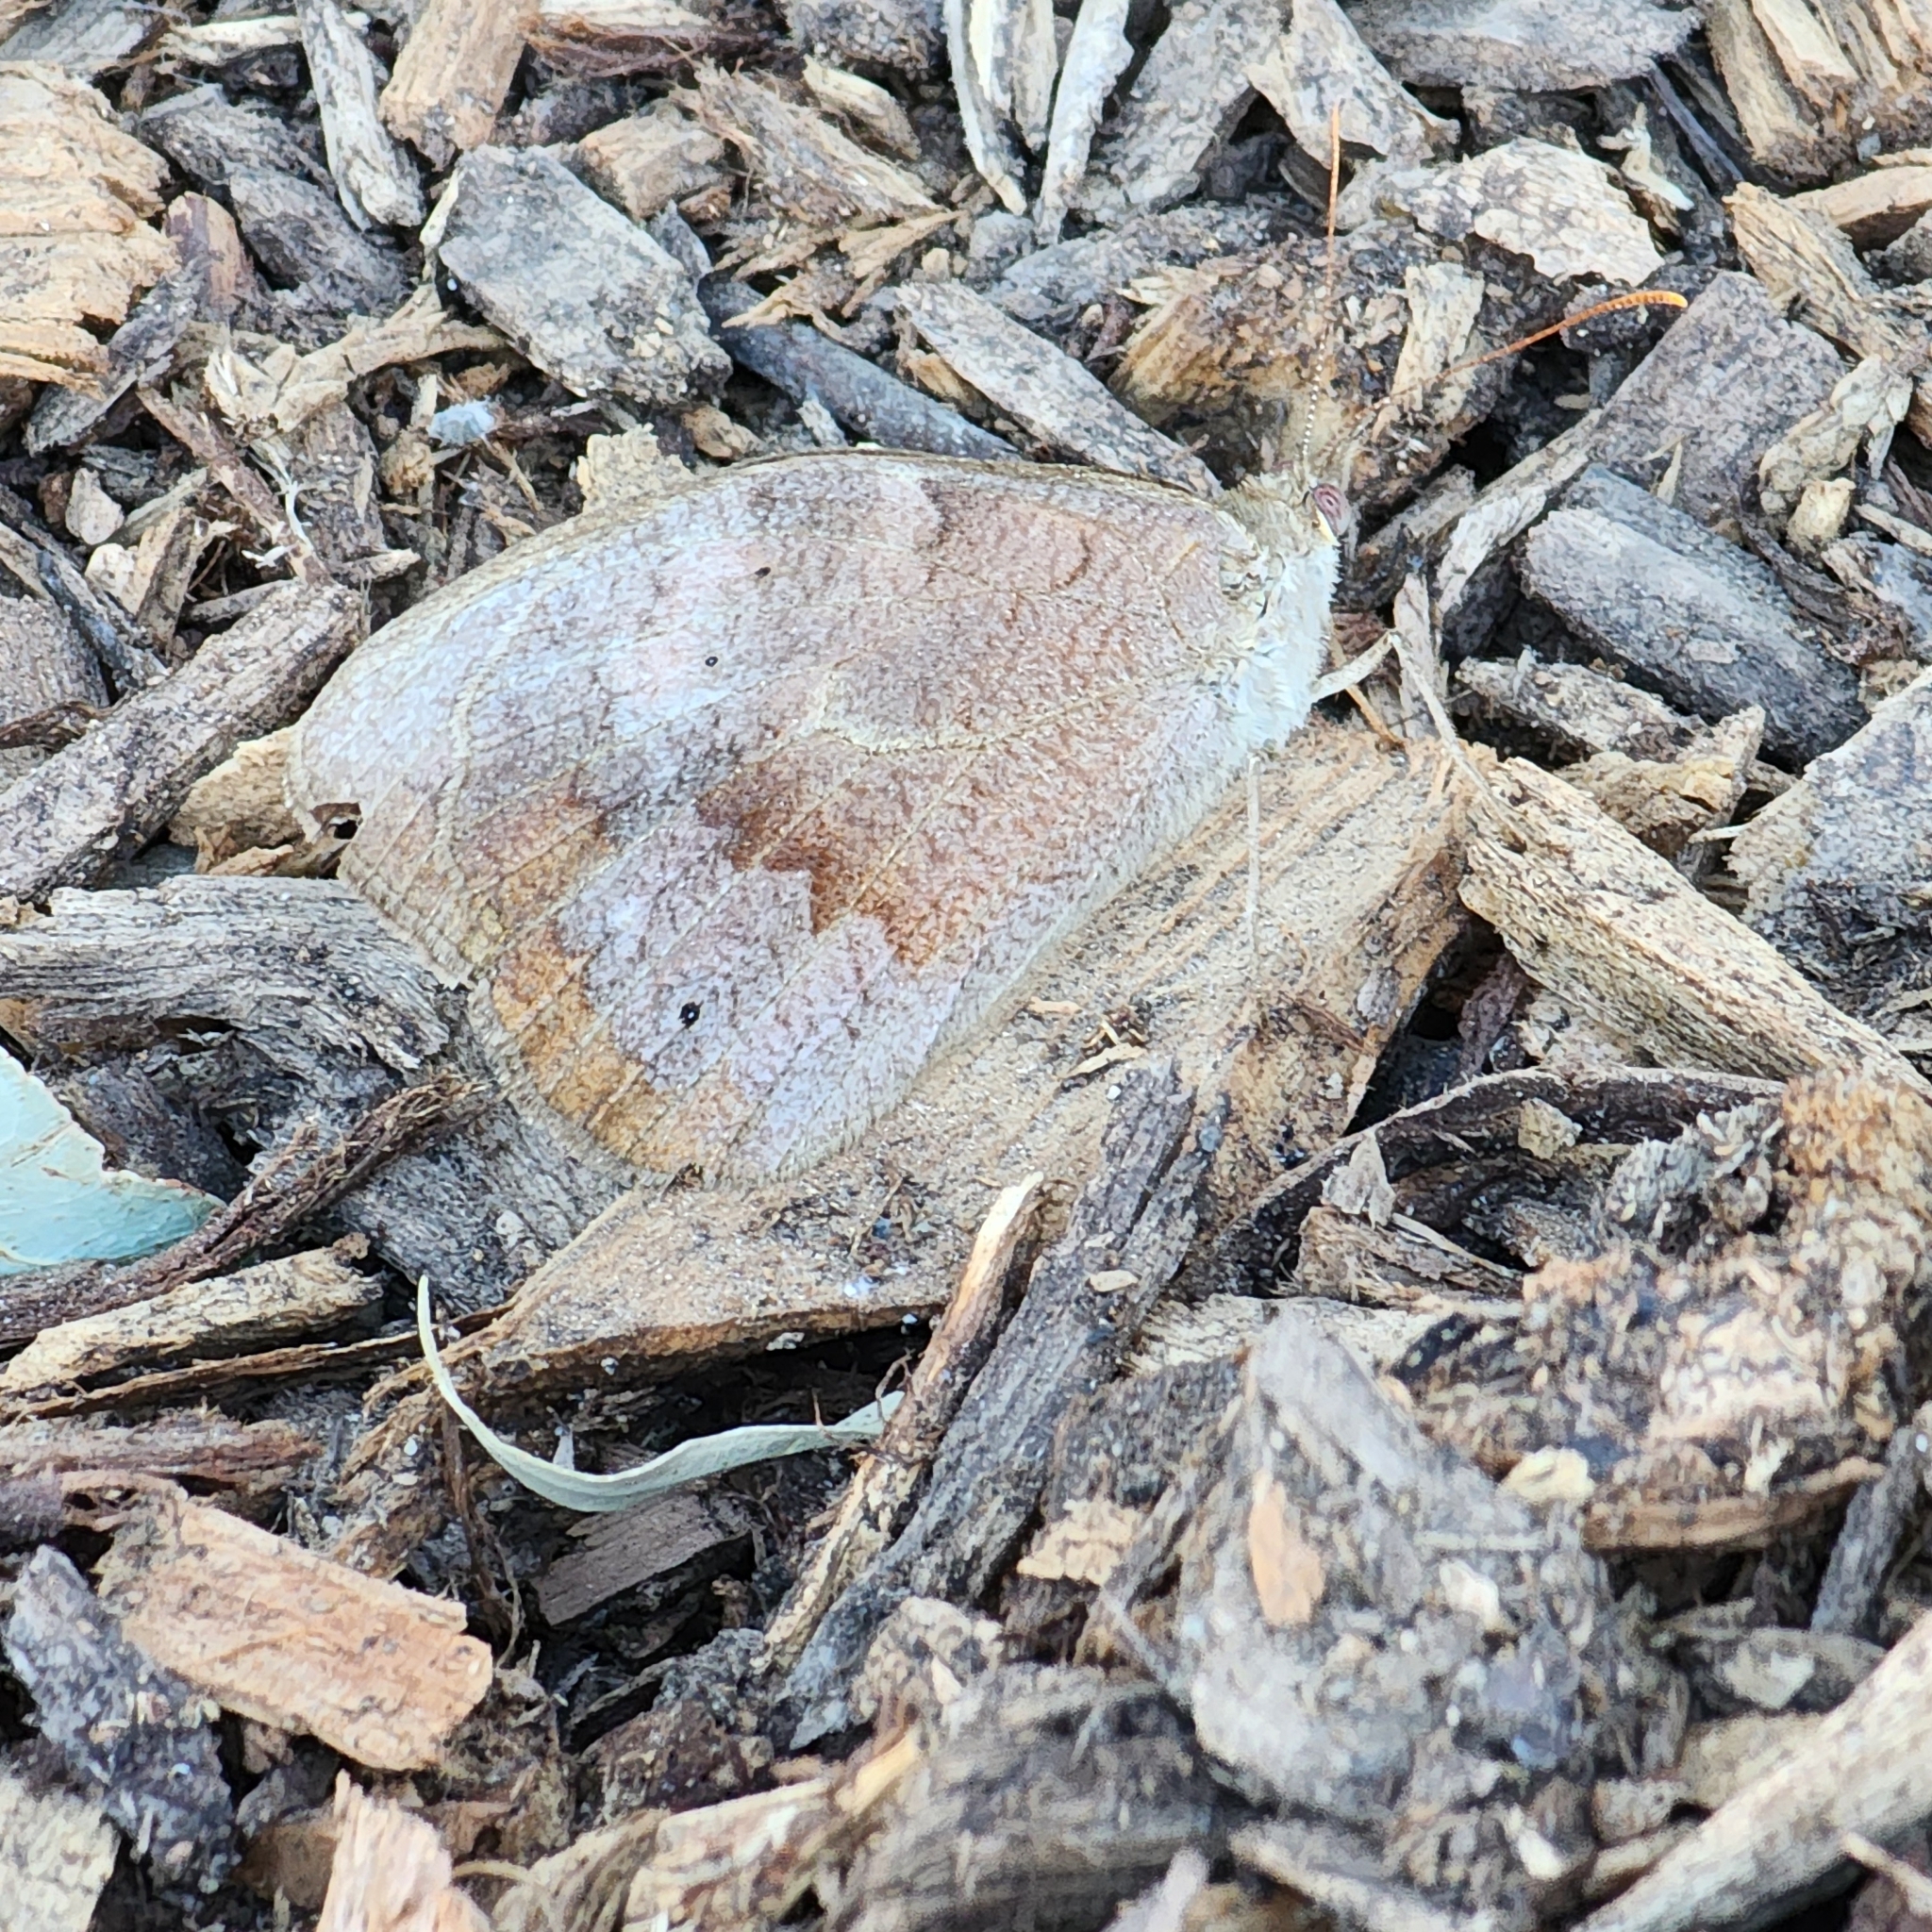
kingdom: Animalia
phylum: Arthropoda
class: Insecta
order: Lepidoptera
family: Nymphalidae
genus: Heteronympha
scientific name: Heteronympha merope
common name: Common brown
